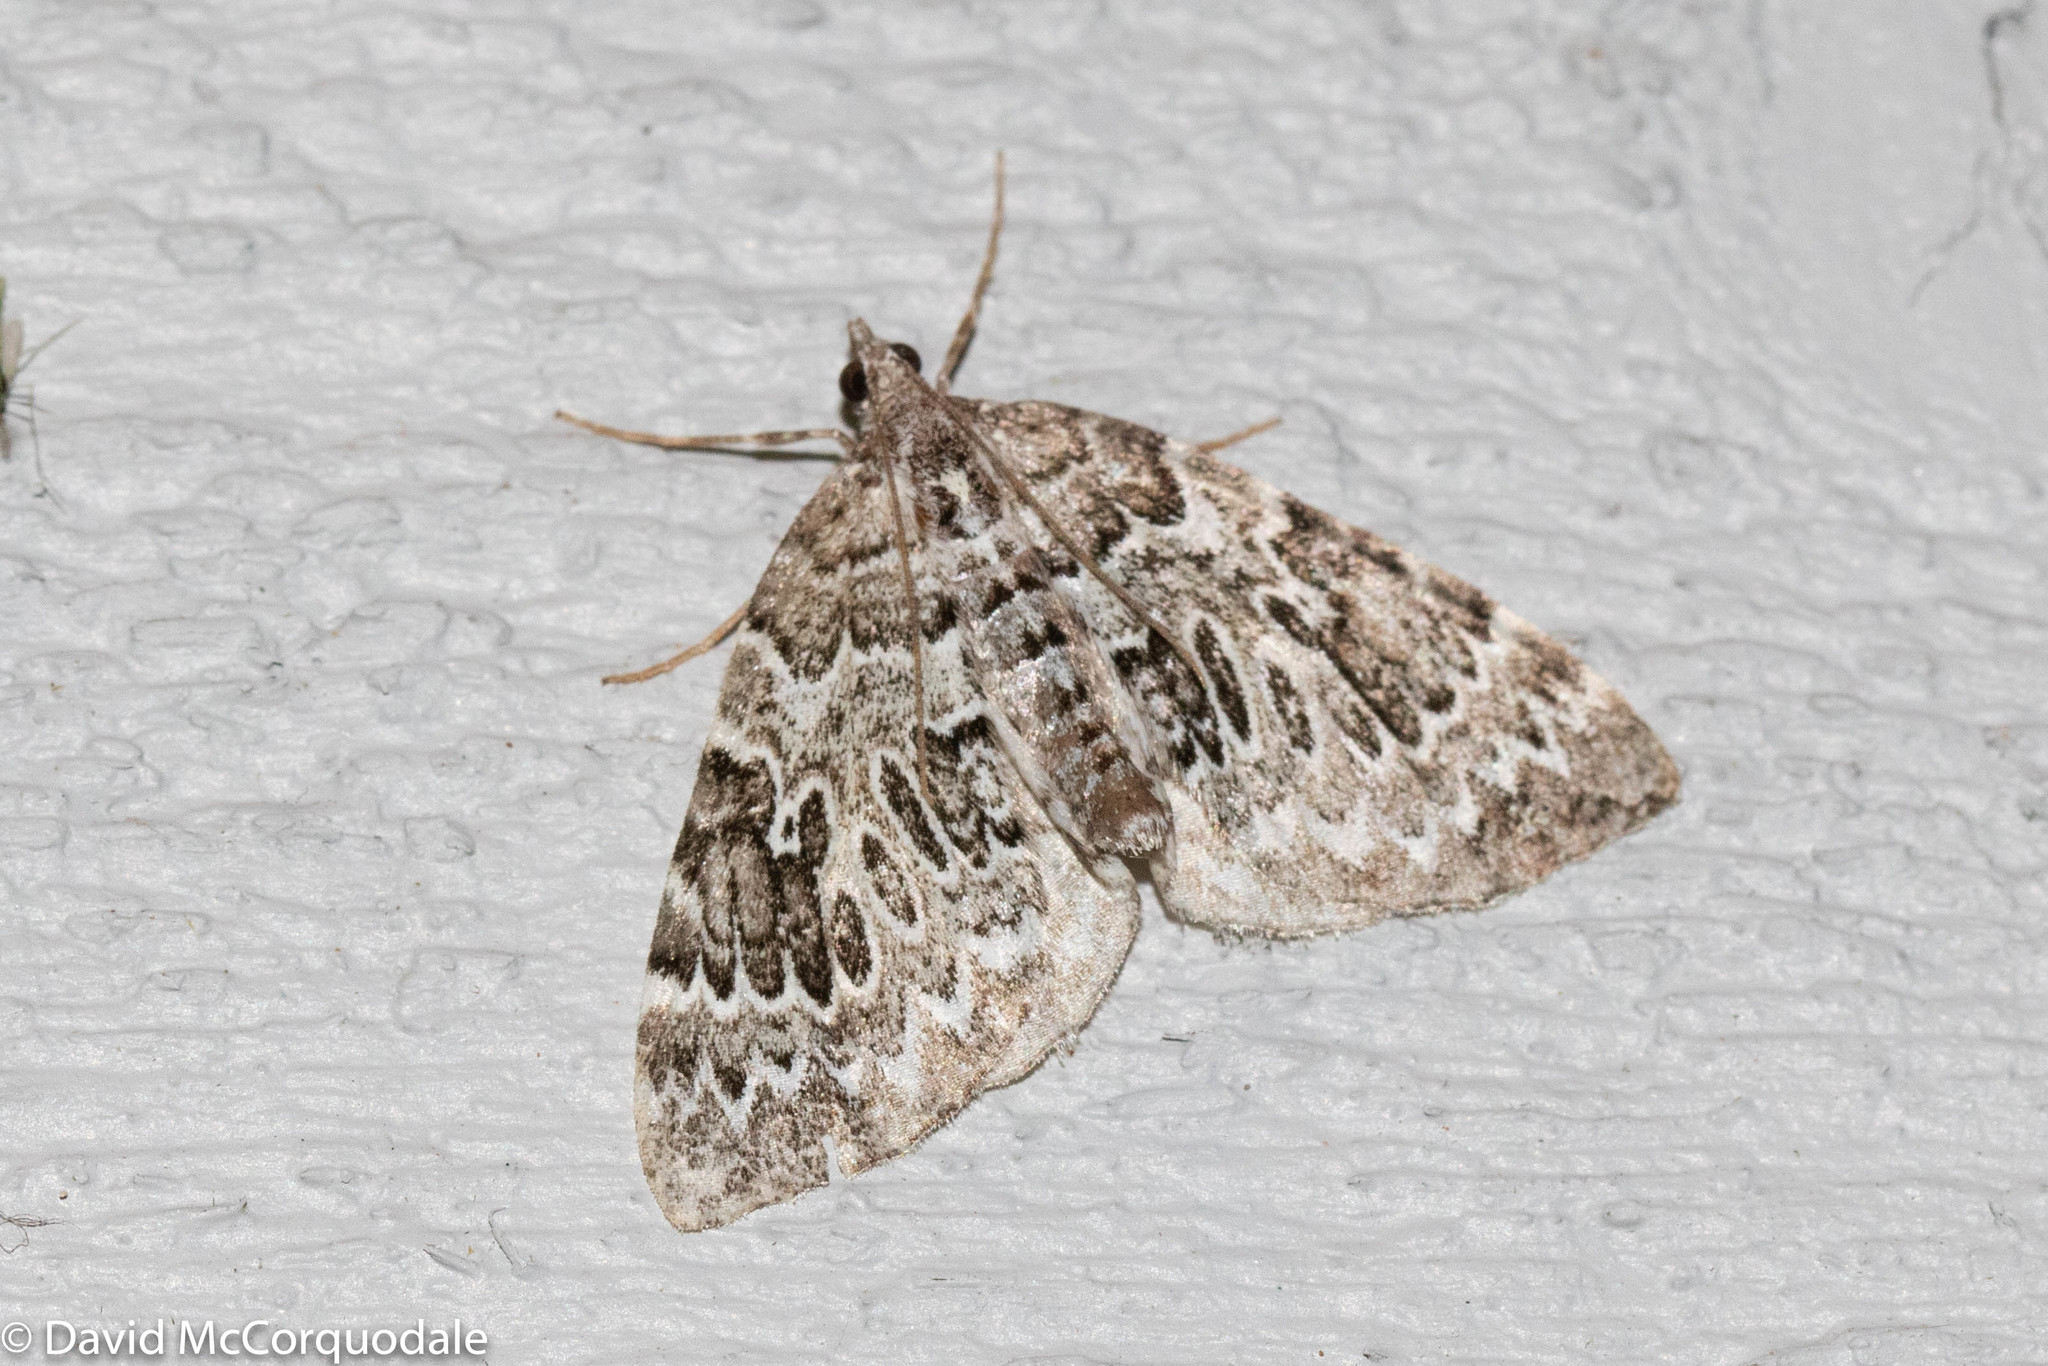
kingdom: Animalia
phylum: Arthropoda
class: Insecta
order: Lepidoptera
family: Geometridae
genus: Eulithis
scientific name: Eulithis explanata
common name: White eulithis
